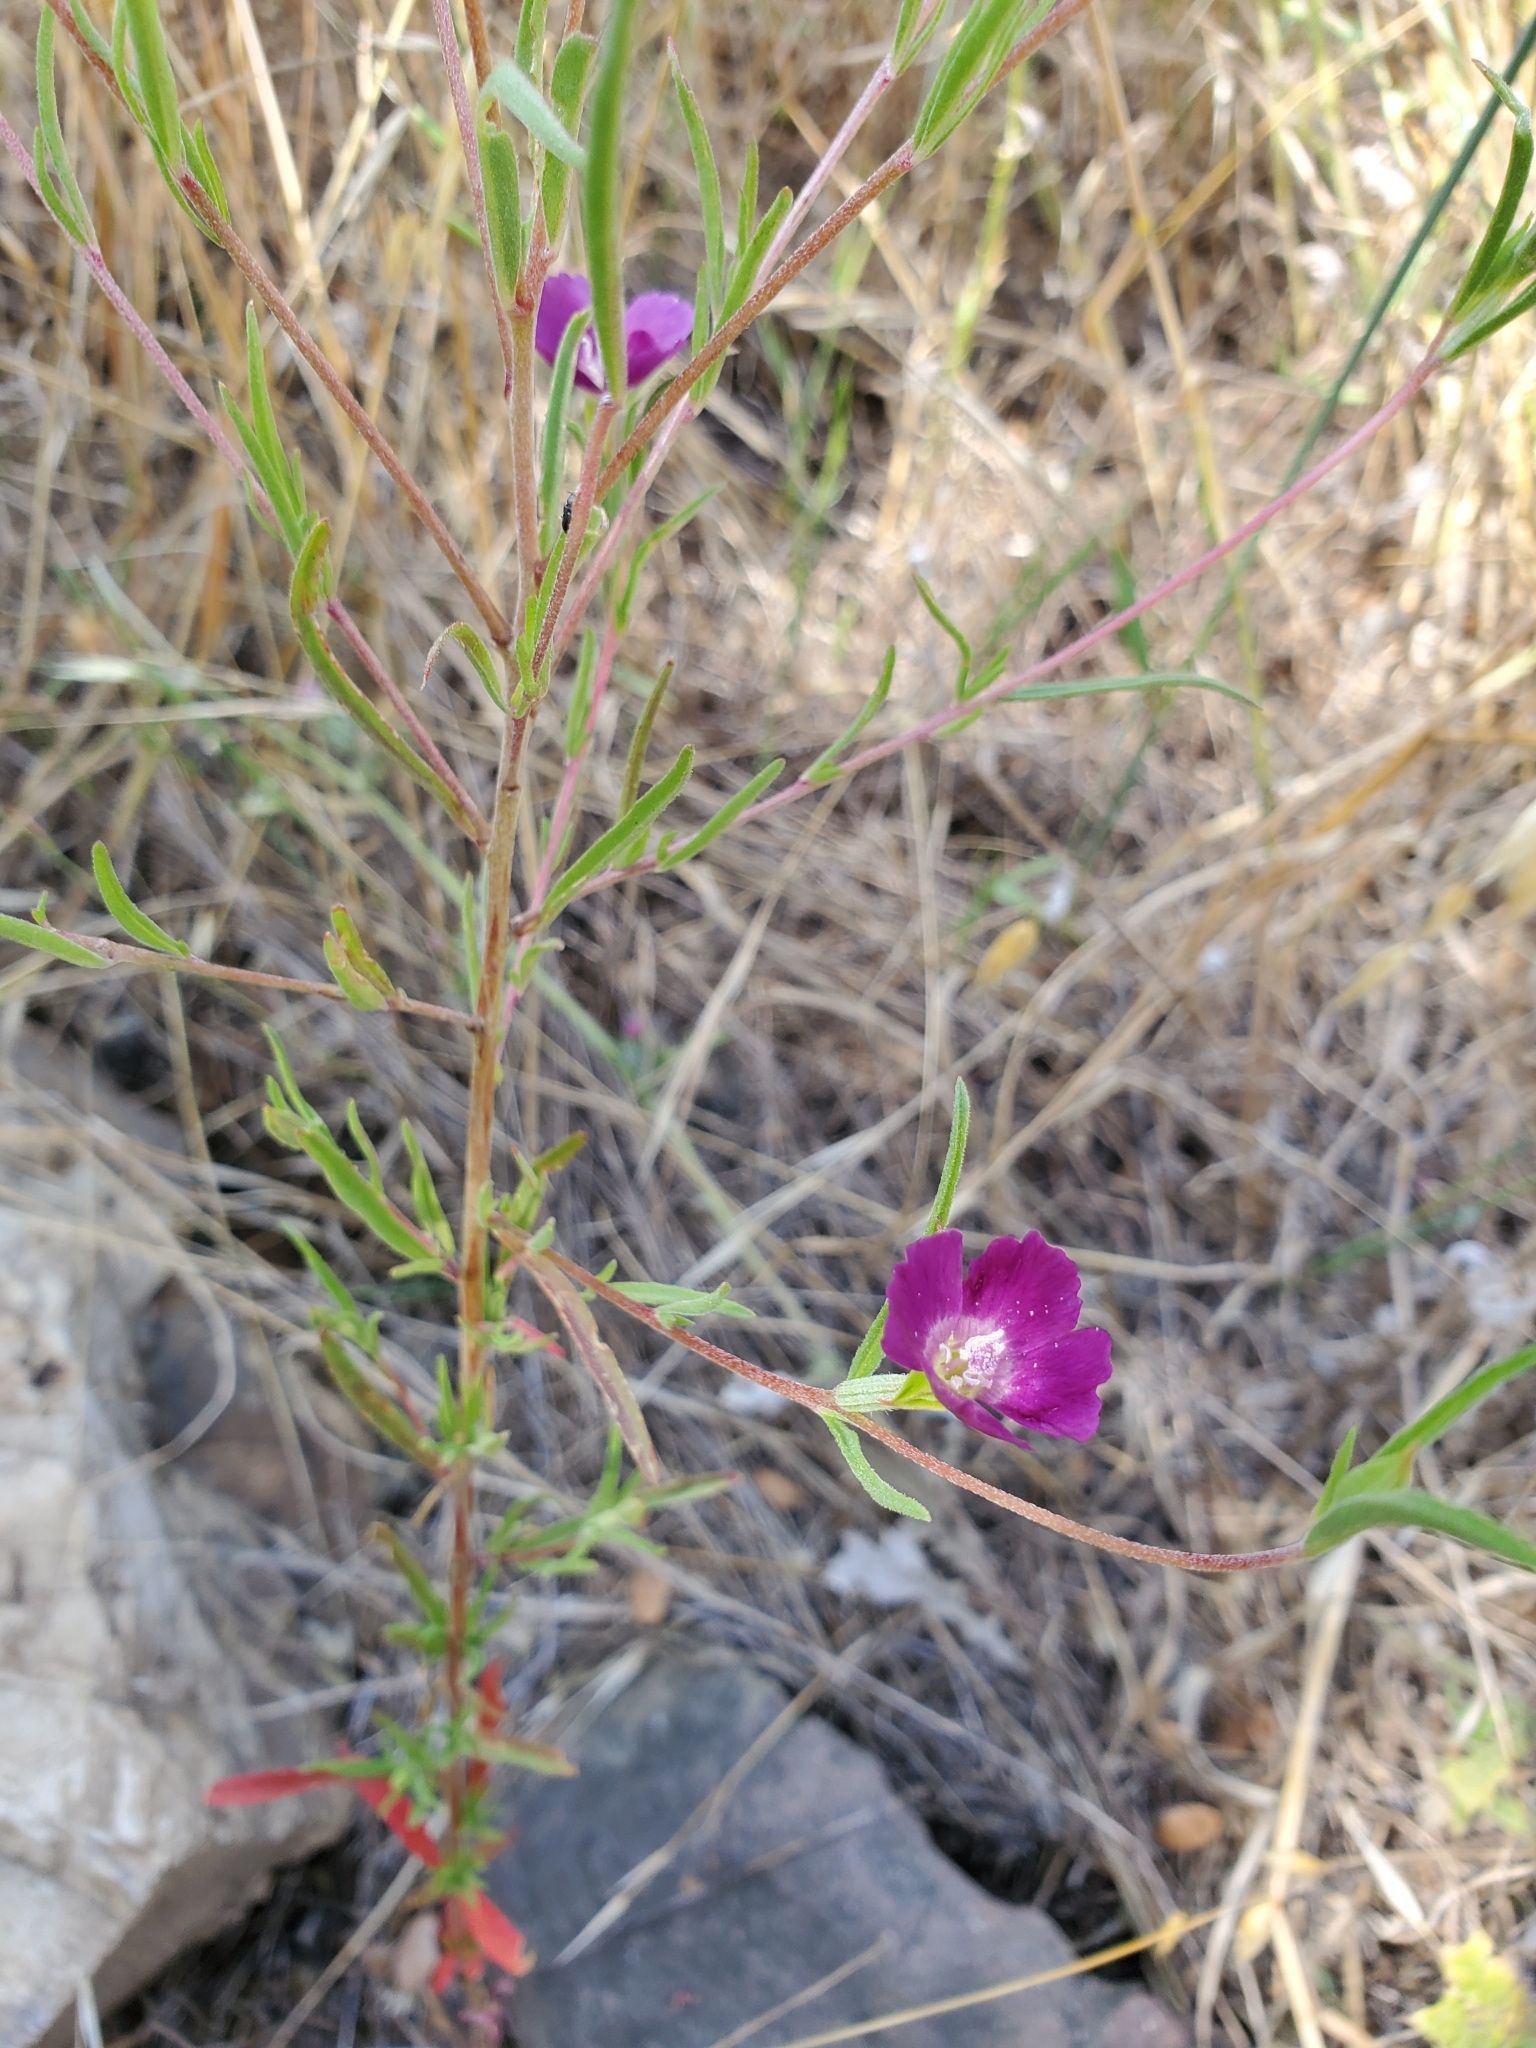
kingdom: Plantae
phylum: Tracheophyta
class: Magnoliopsida
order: Myrtales
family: Onagraceae
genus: Clarkia
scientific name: Clarkia purpurea
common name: Purple clarkia
